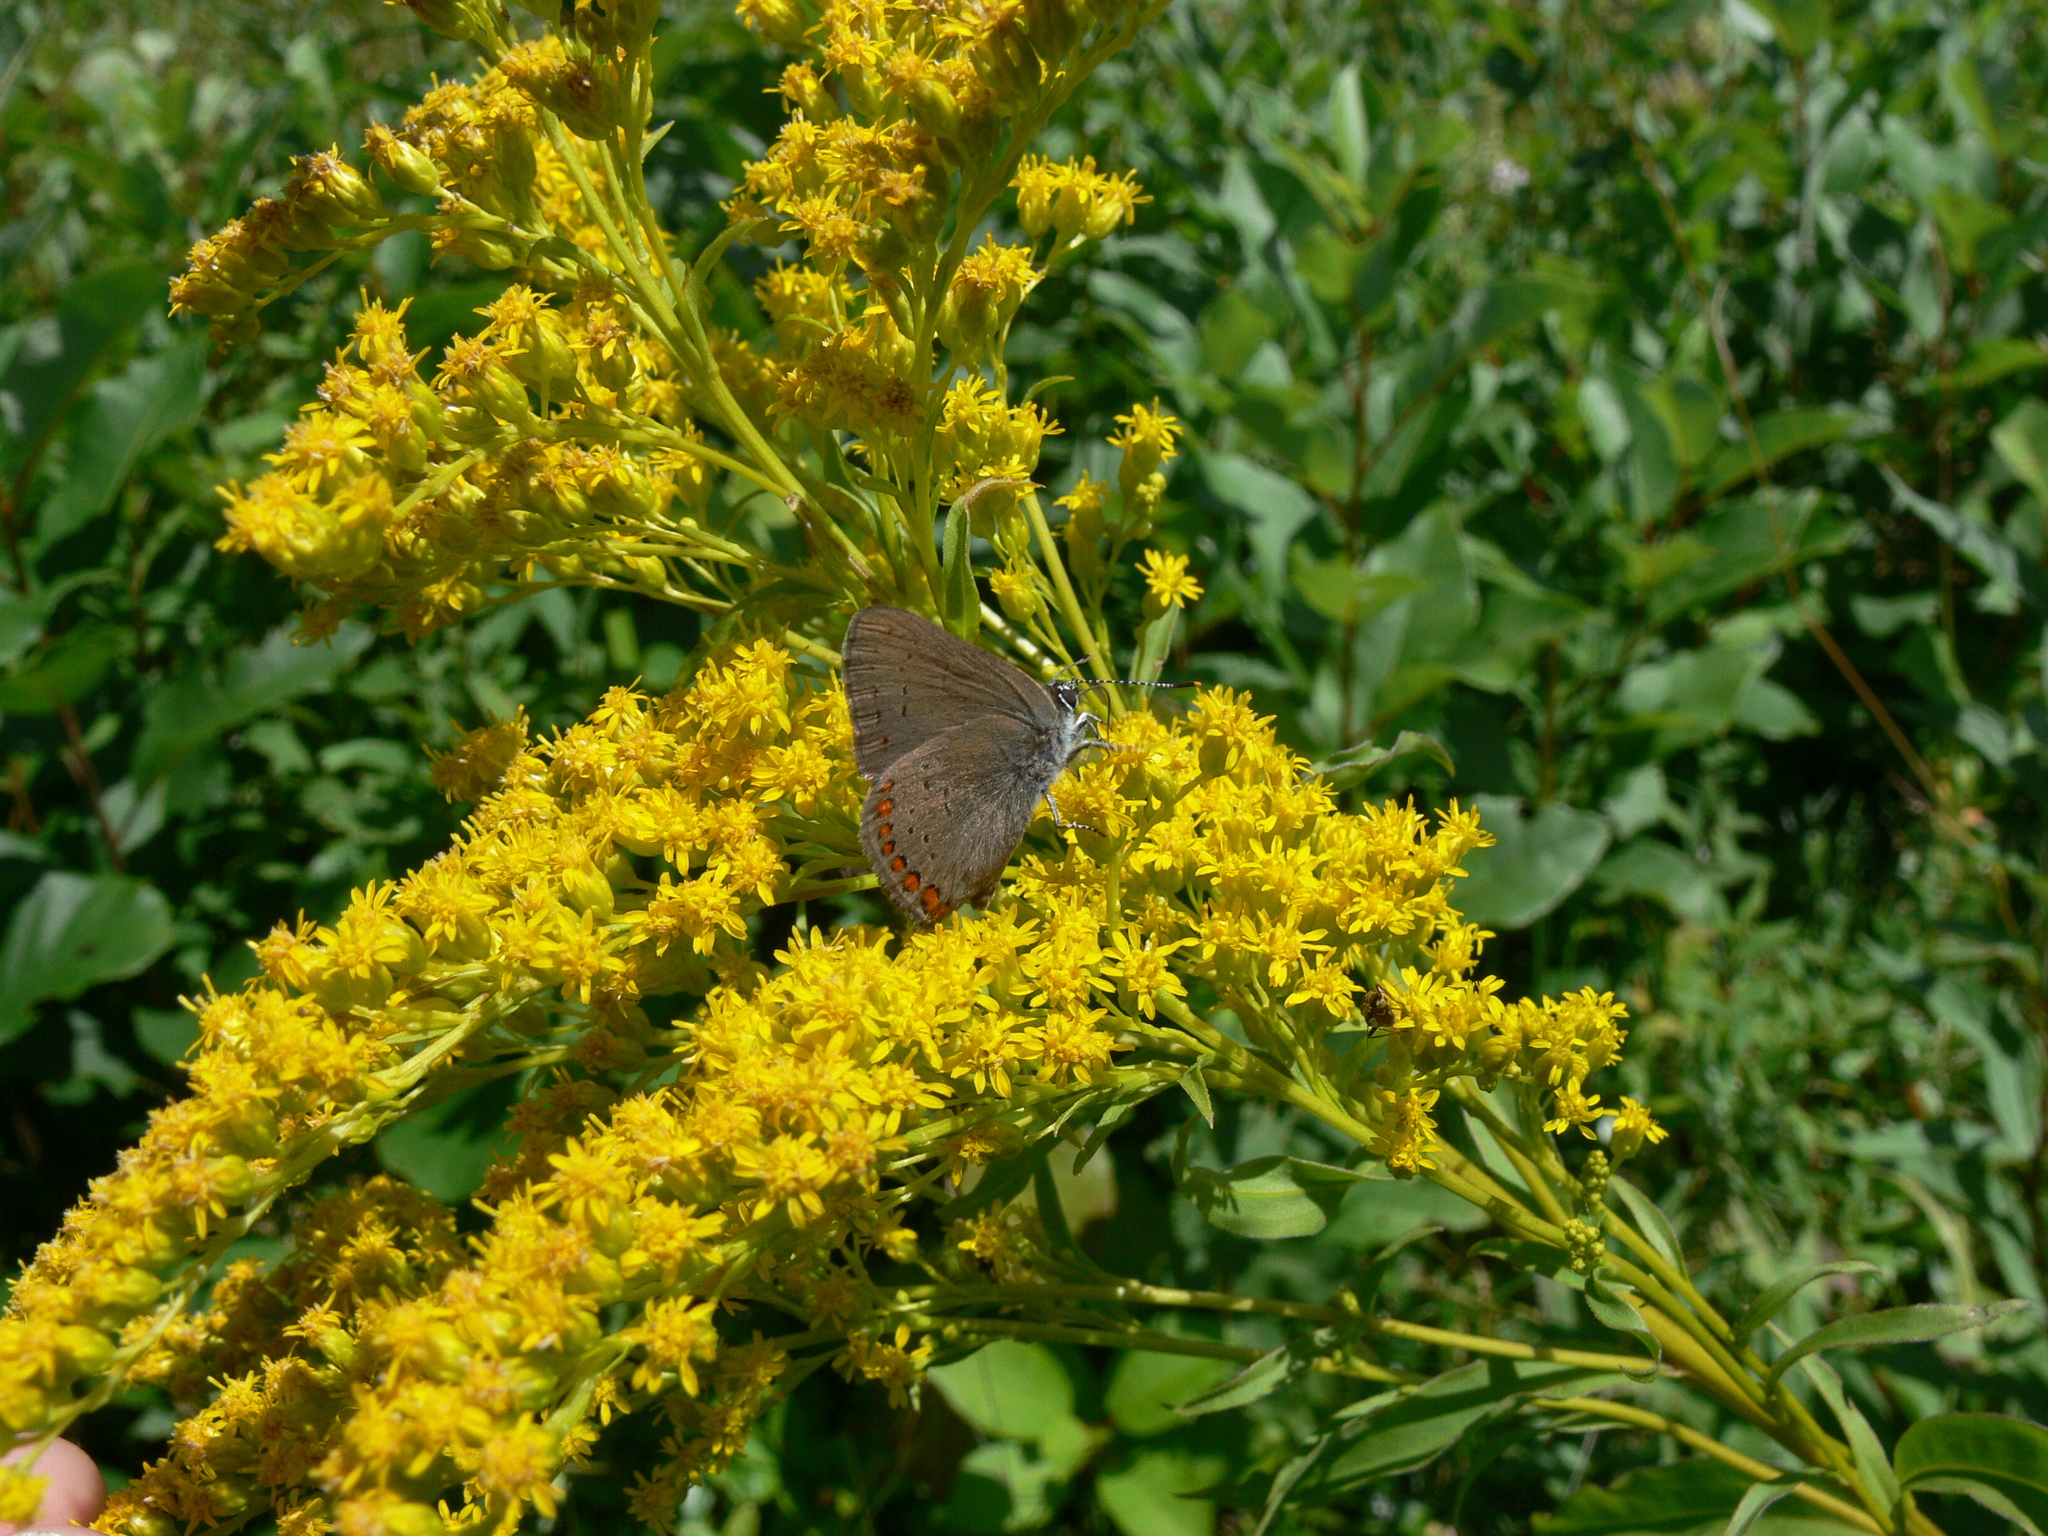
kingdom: Animalia
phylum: Arthropoda
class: Insecta
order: Lepidoptera
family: Lycaenidae
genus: Harkenclenus
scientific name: Harkenclenus titus
